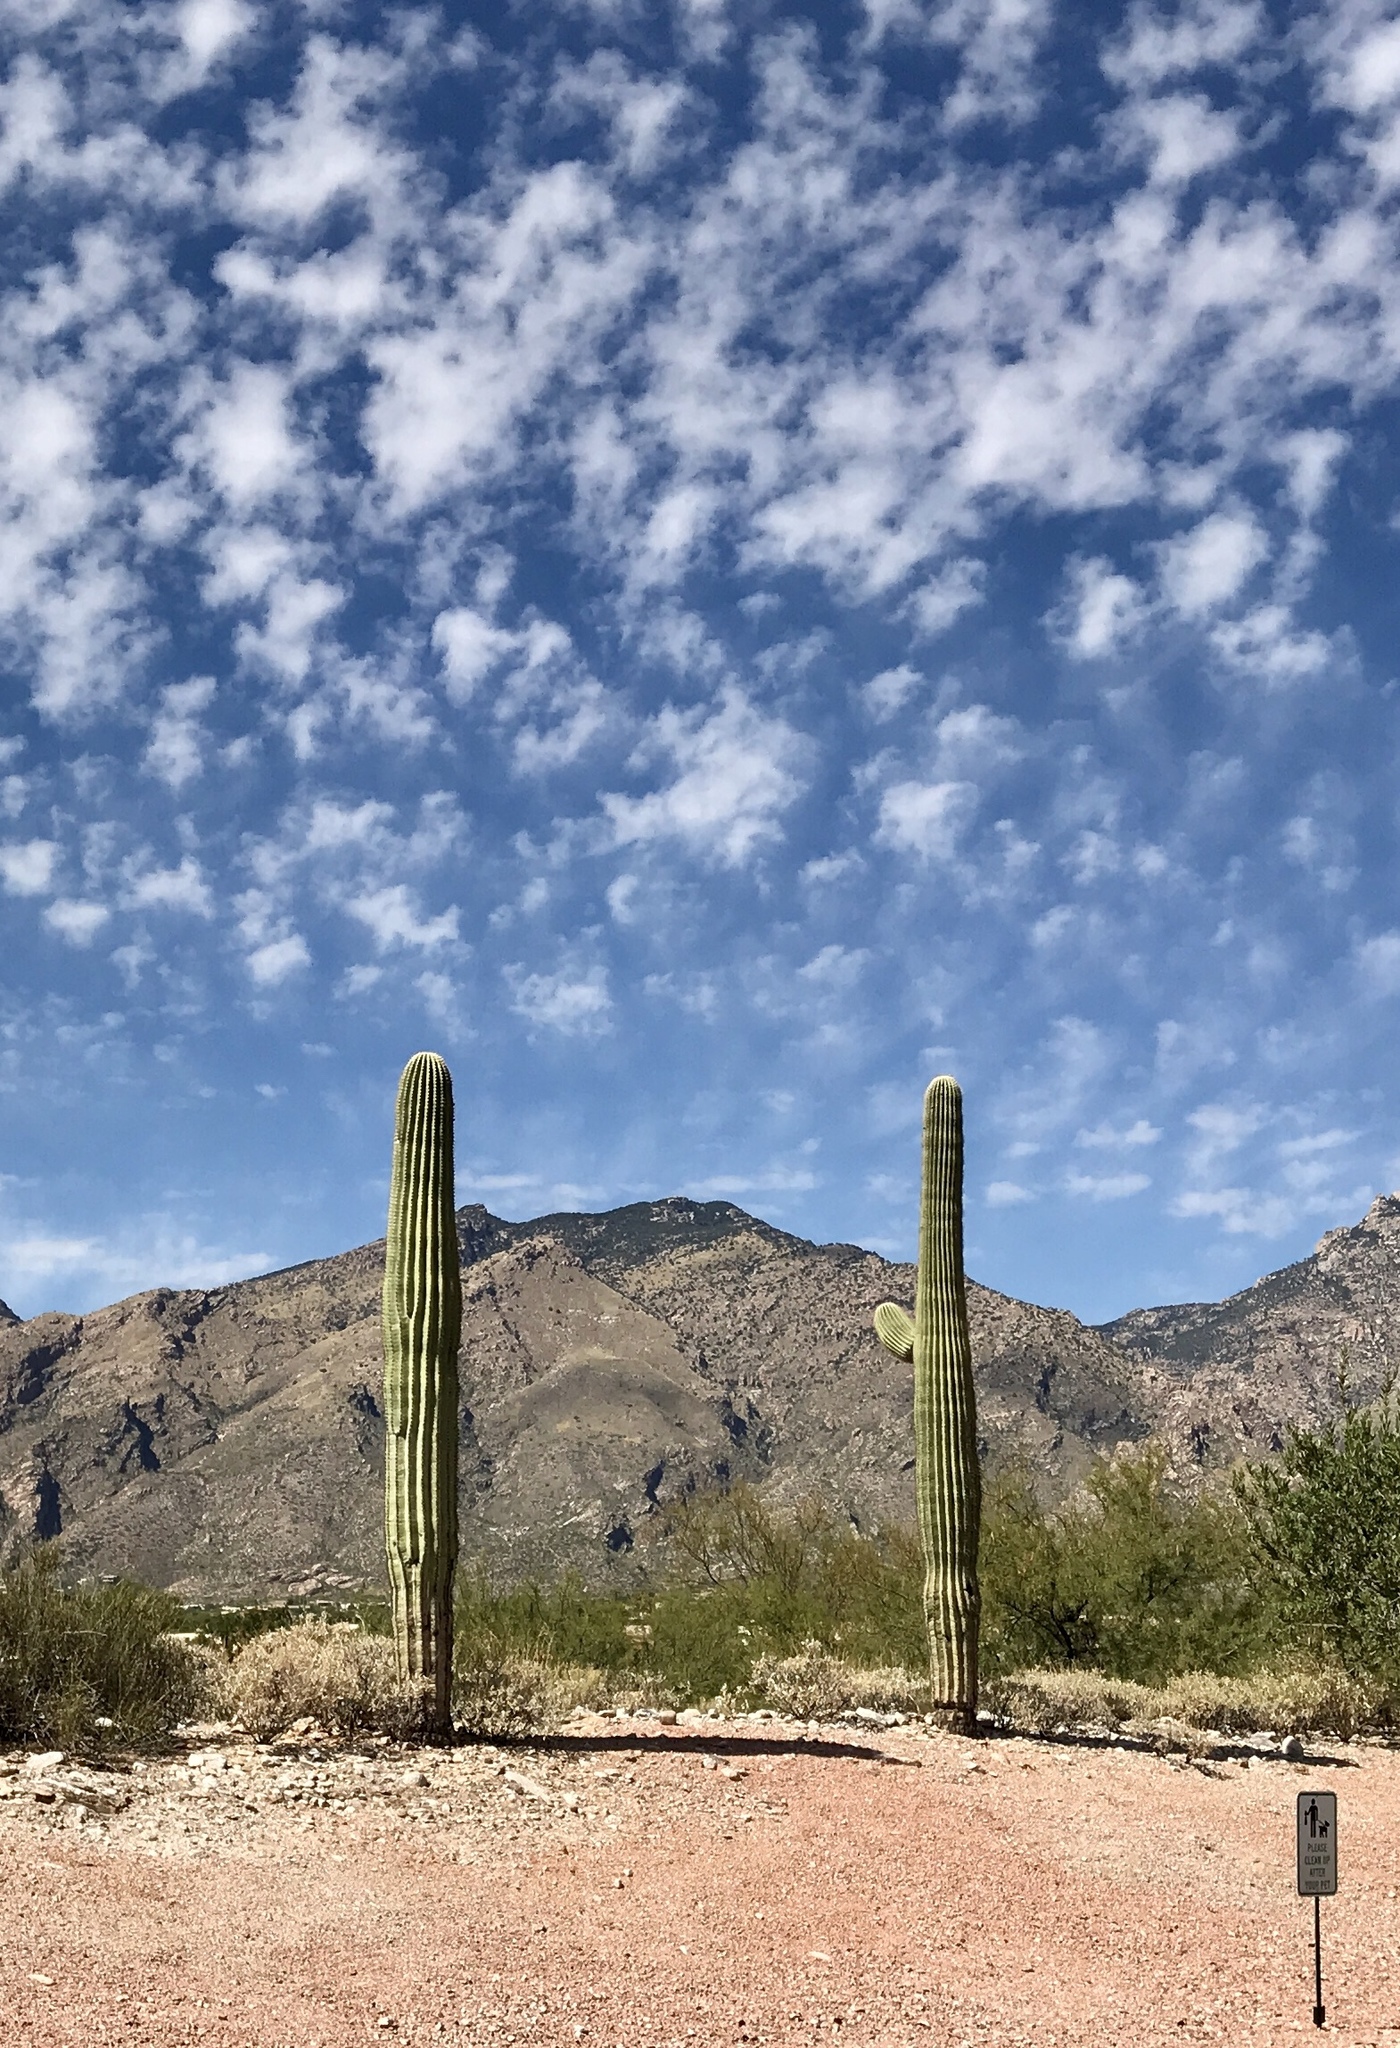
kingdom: Plantae
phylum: Tracheophyta
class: Magnoliopsida
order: Caryophyllales
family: Cactaceae
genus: Carnegiea
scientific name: Carnegiea gigantea
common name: Saguaro
